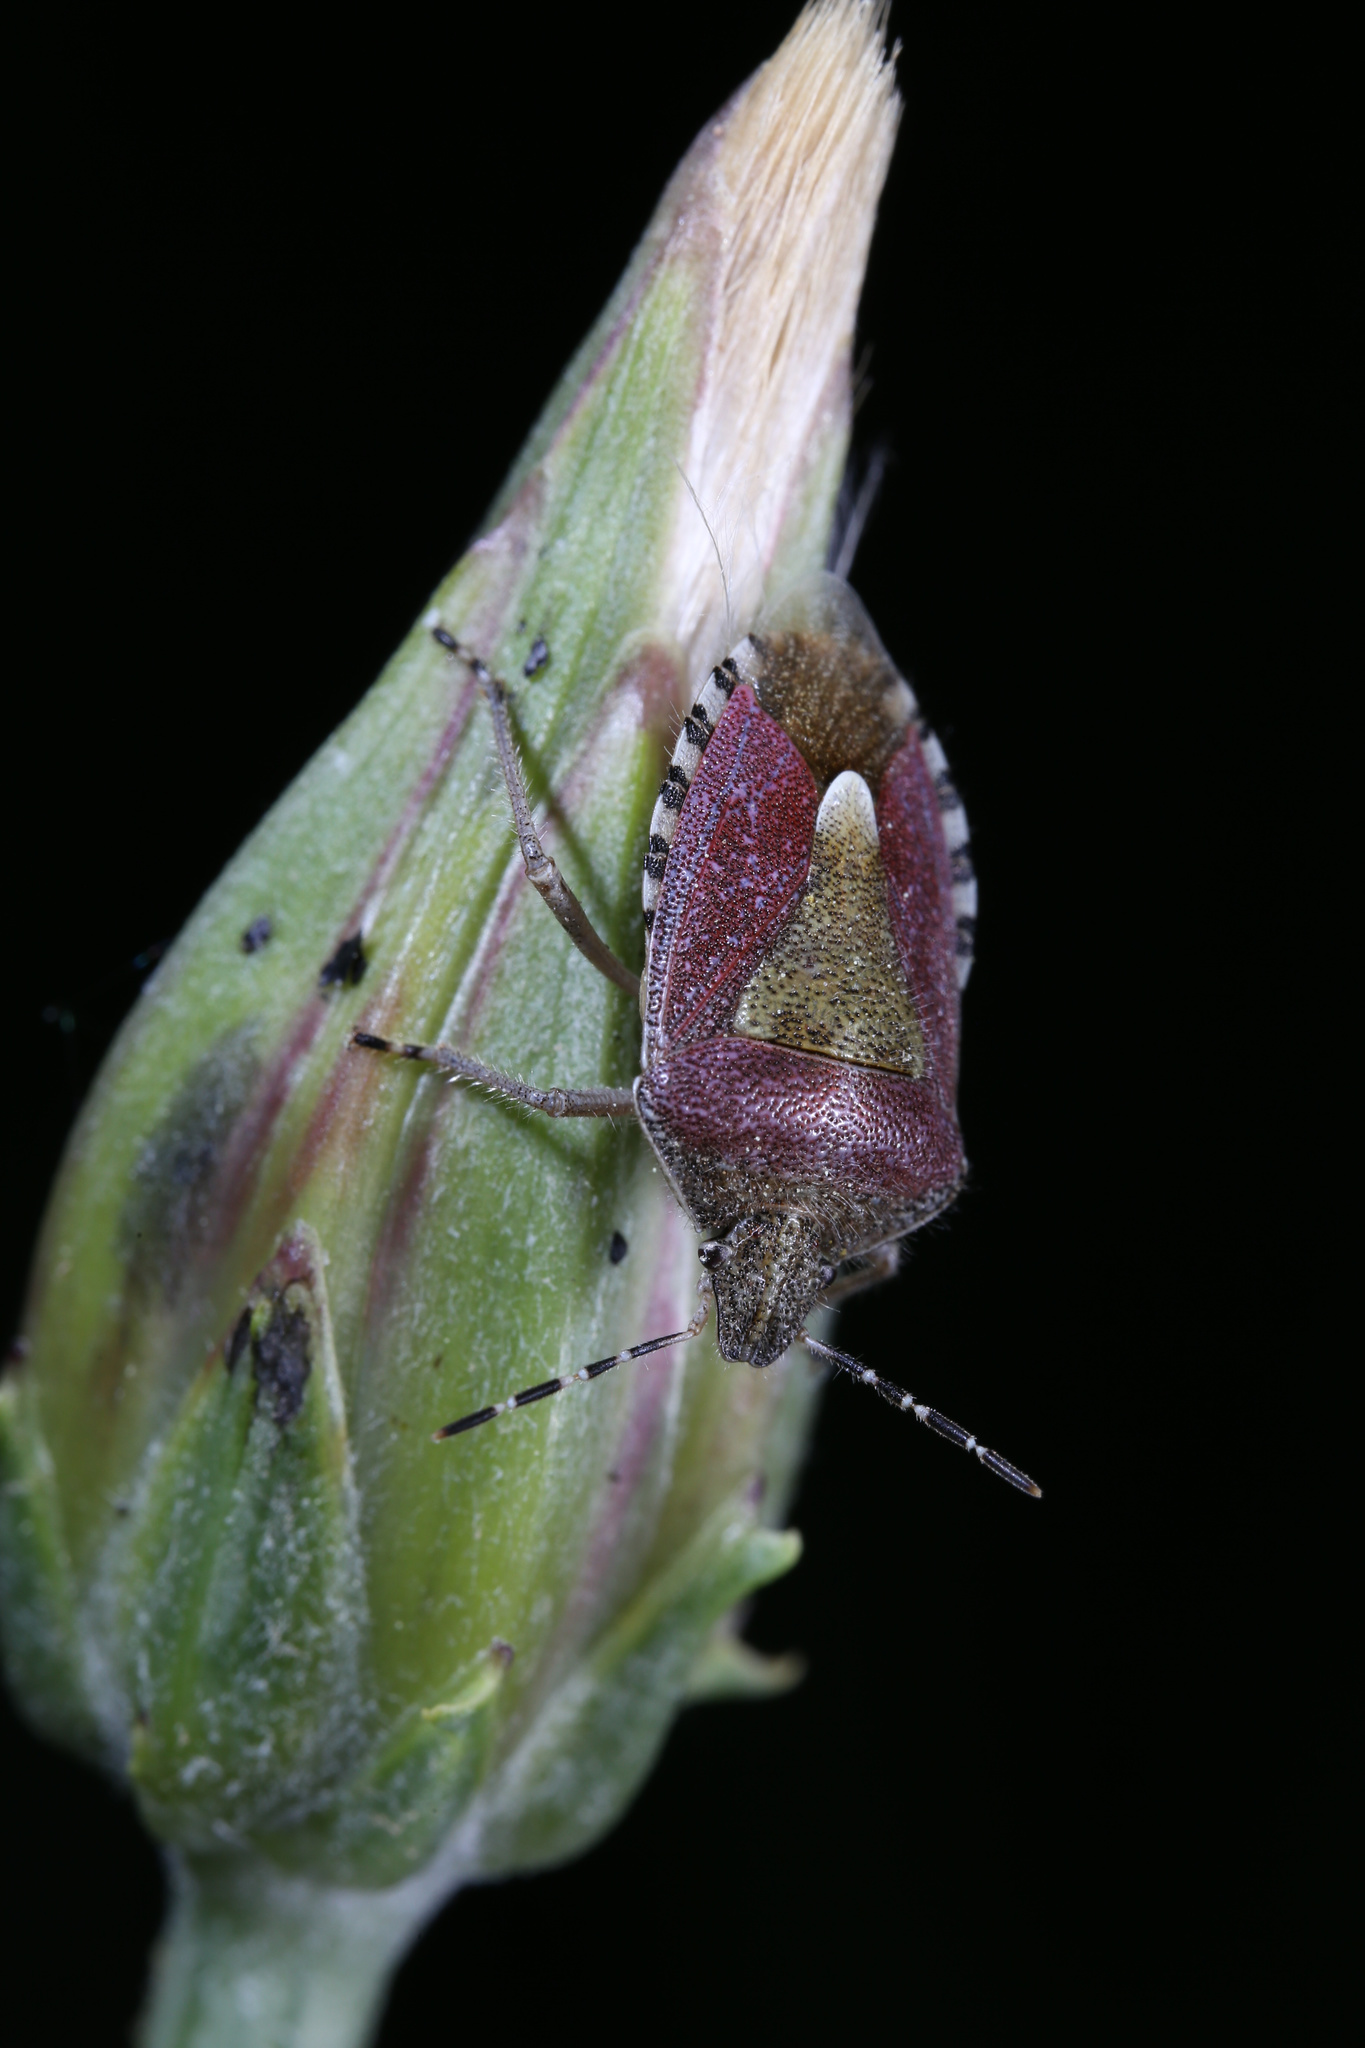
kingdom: Animalia
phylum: Arthropoda
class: Insecta
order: Hemiptera
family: Pentatomidae
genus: Dolycoris
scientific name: Dolycoris baccarum
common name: Sloe bug
